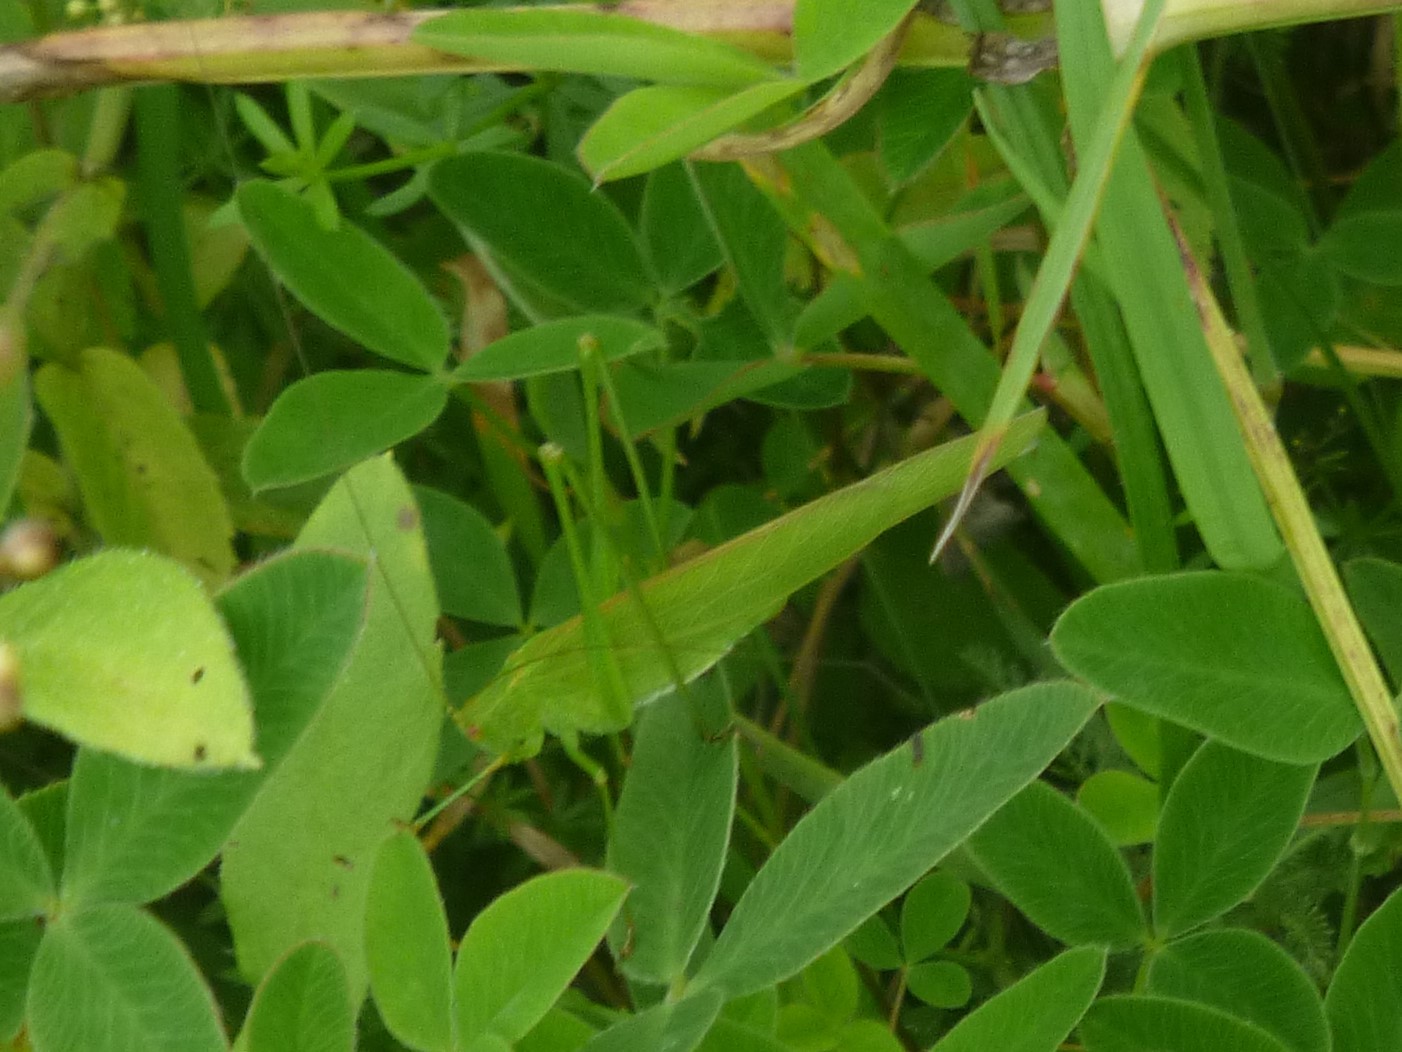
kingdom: Animalia
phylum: Arthropoda
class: Insecta
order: Orthoptera
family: Tettigoniidae
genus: Phaneroptera
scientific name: Phaneroptera falcata
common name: Sickle-bearing bush-cricket
